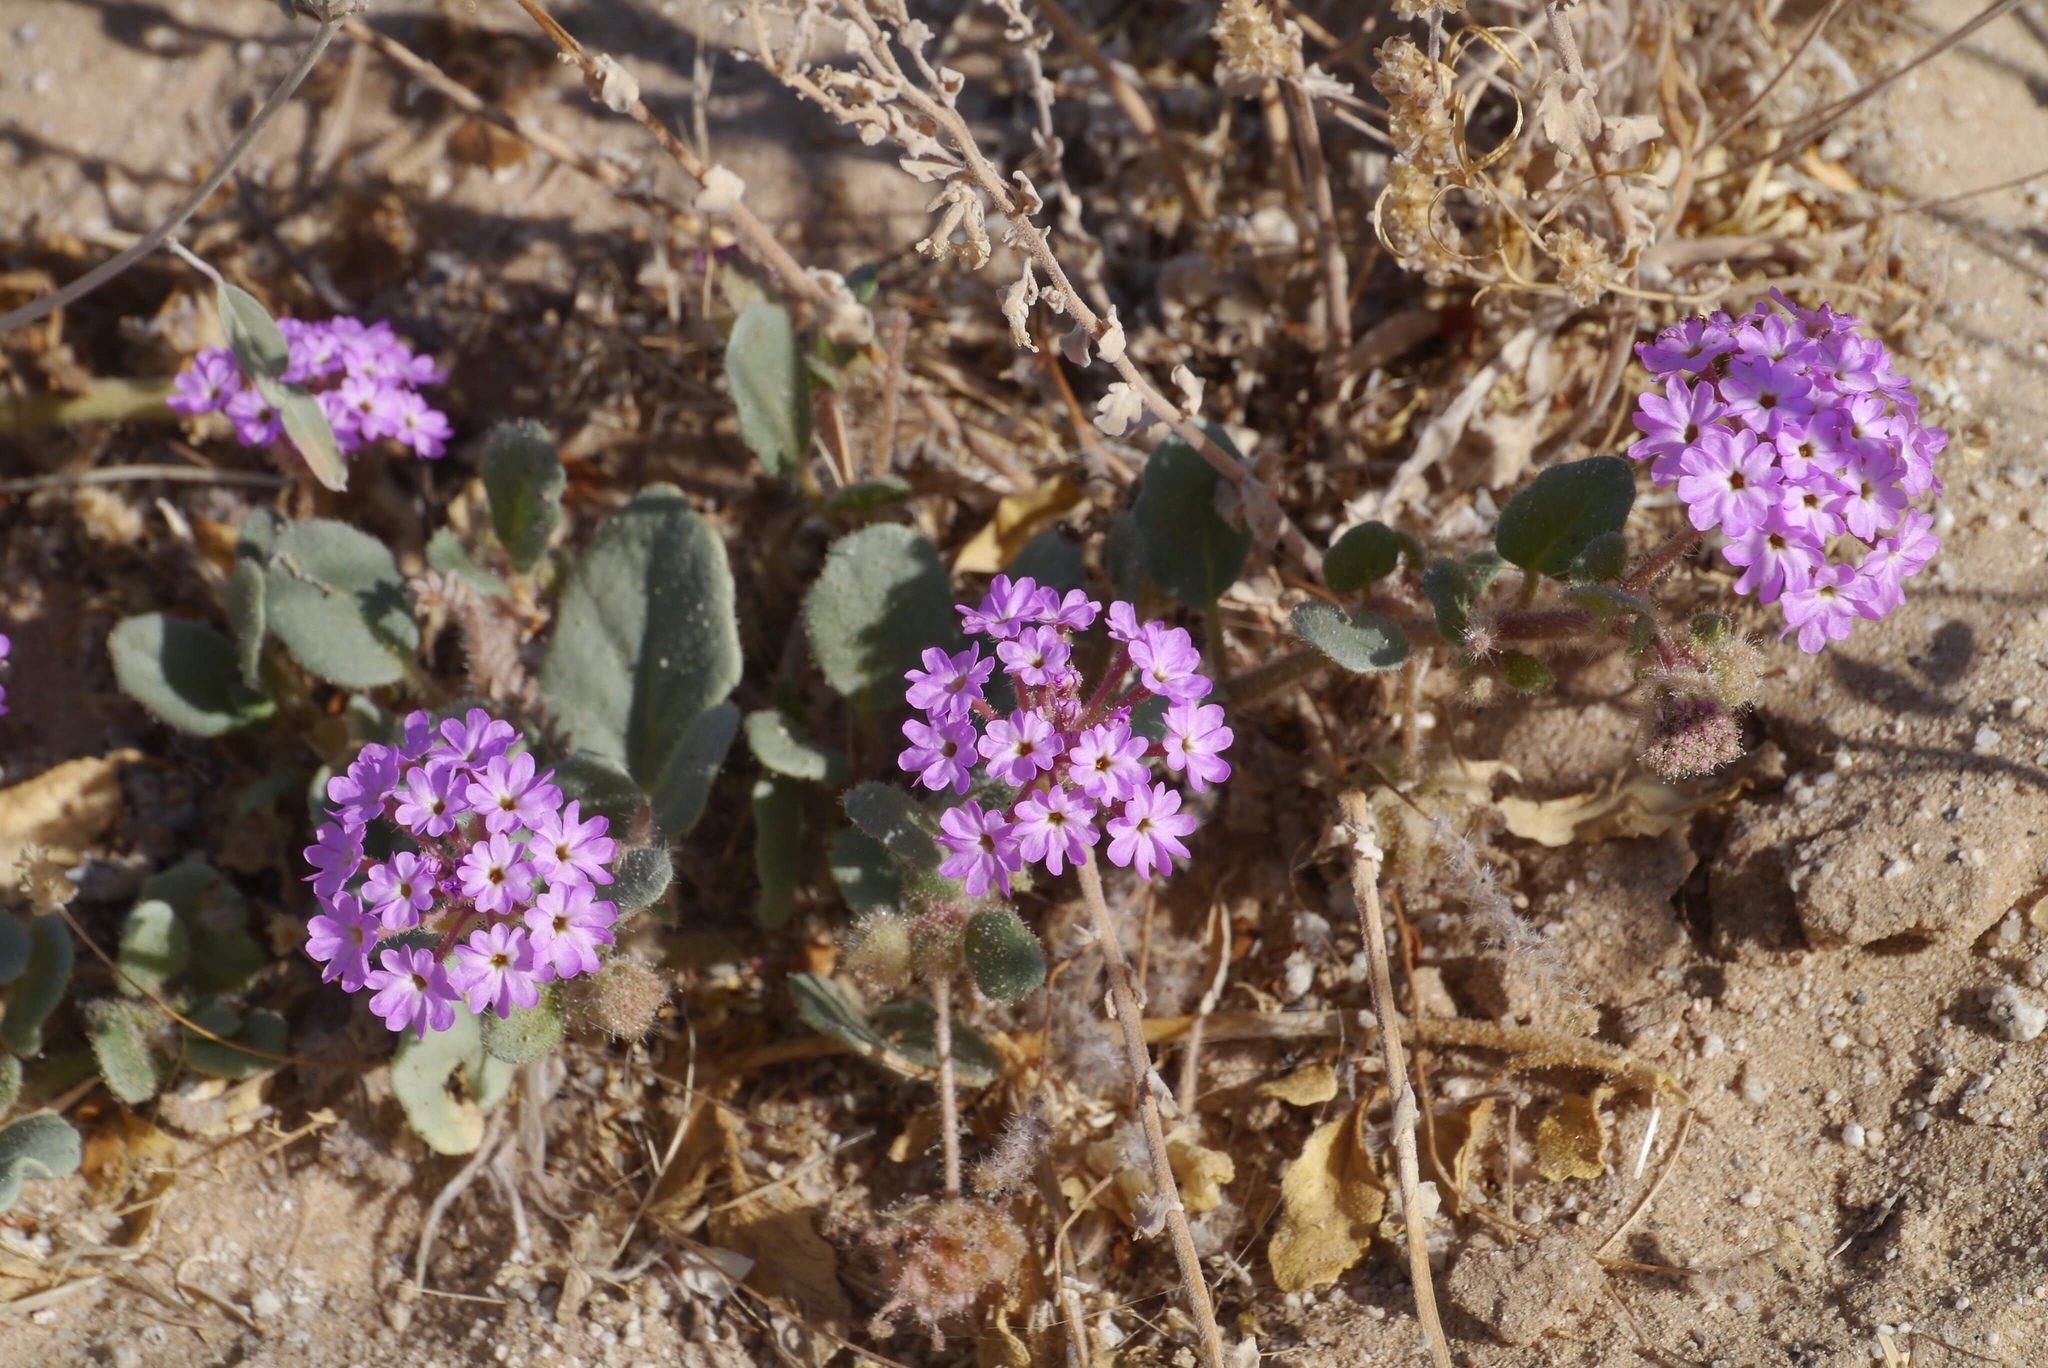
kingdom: Plantae
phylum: Tracheophyta
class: Magnoliopsida
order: Caryophyllales
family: Nyctaginaceae
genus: Abronia
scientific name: Abronia villosa
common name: Desert sand-verbena
